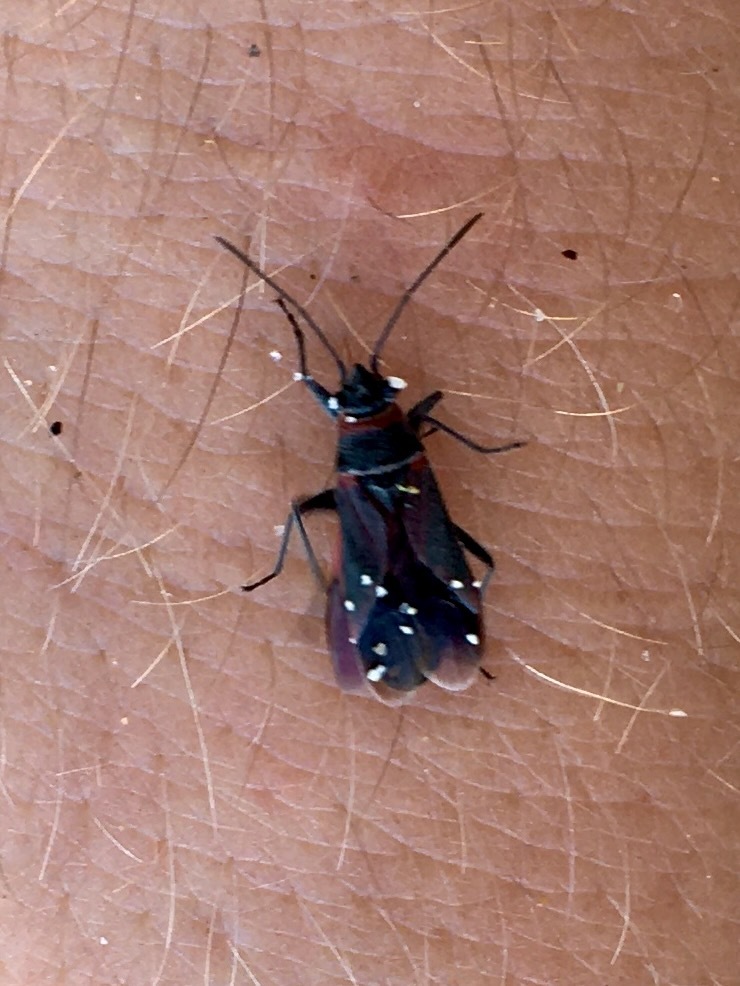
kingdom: Animalia
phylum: Arthropoda
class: Insecta
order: Hemiptera
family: Lygaeidae
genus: Arocatus
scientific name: Arocatus rusticus
